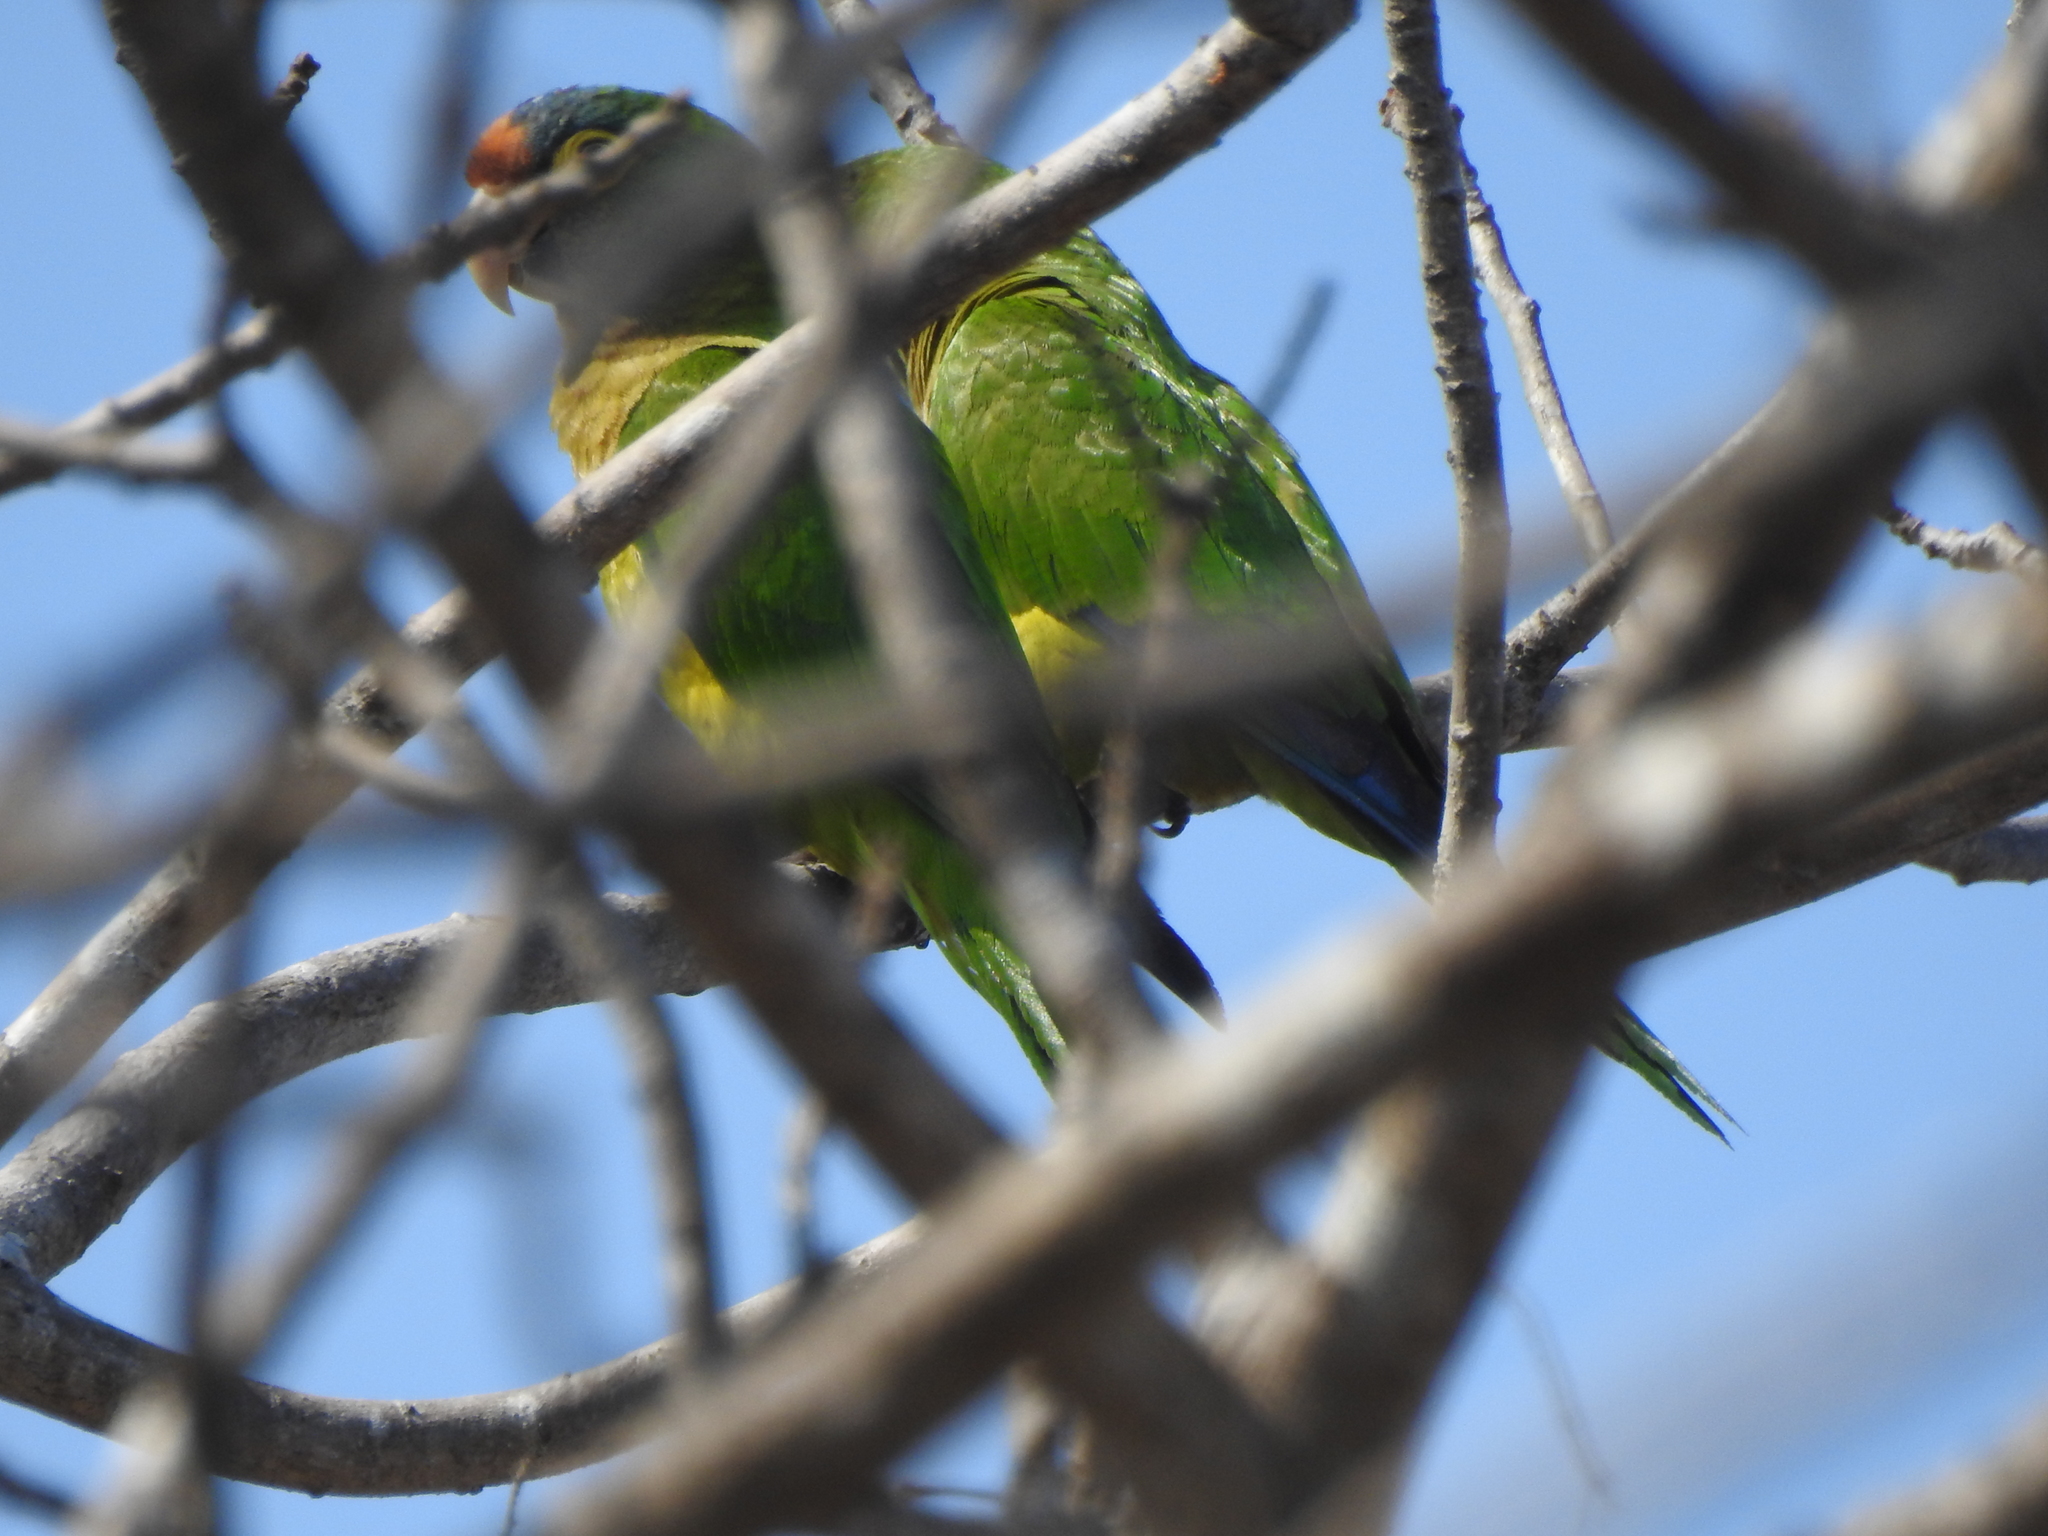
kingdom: Animalia
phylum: Chordata
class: Aves
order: Psittaciformes
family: Psittacidae
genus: Aratinga
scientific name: Aratinga canicularis
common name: Orange-fronted parakeet
